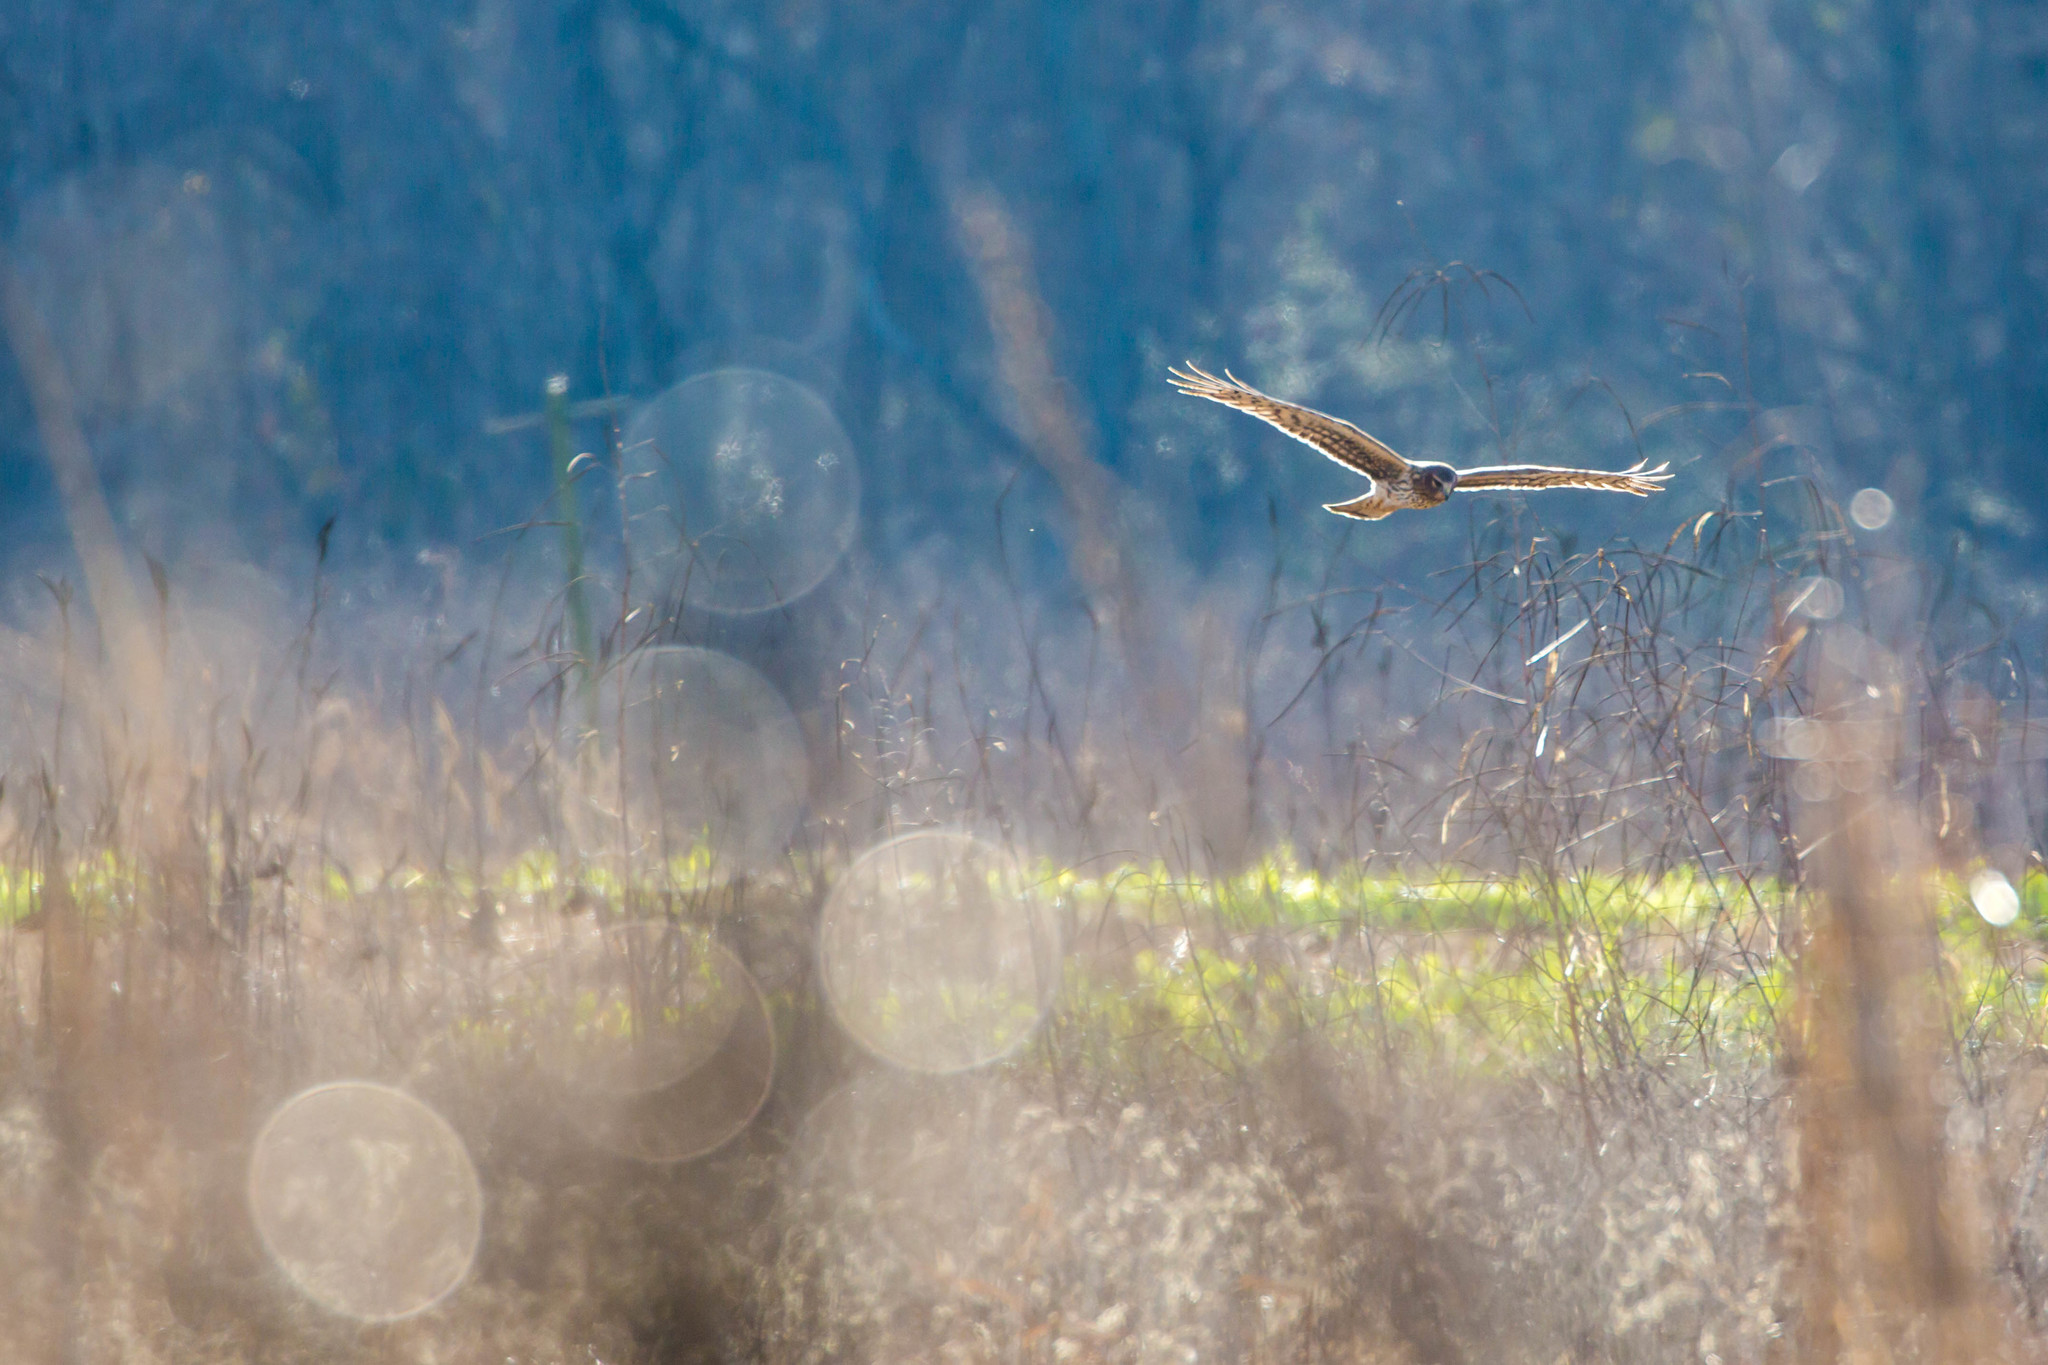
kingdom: Animalia
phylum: Chordata
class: Aves
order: Accipitriformes
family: Accipitridae
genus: Circus
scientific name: Circus cyaneus
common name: Hen harrier
